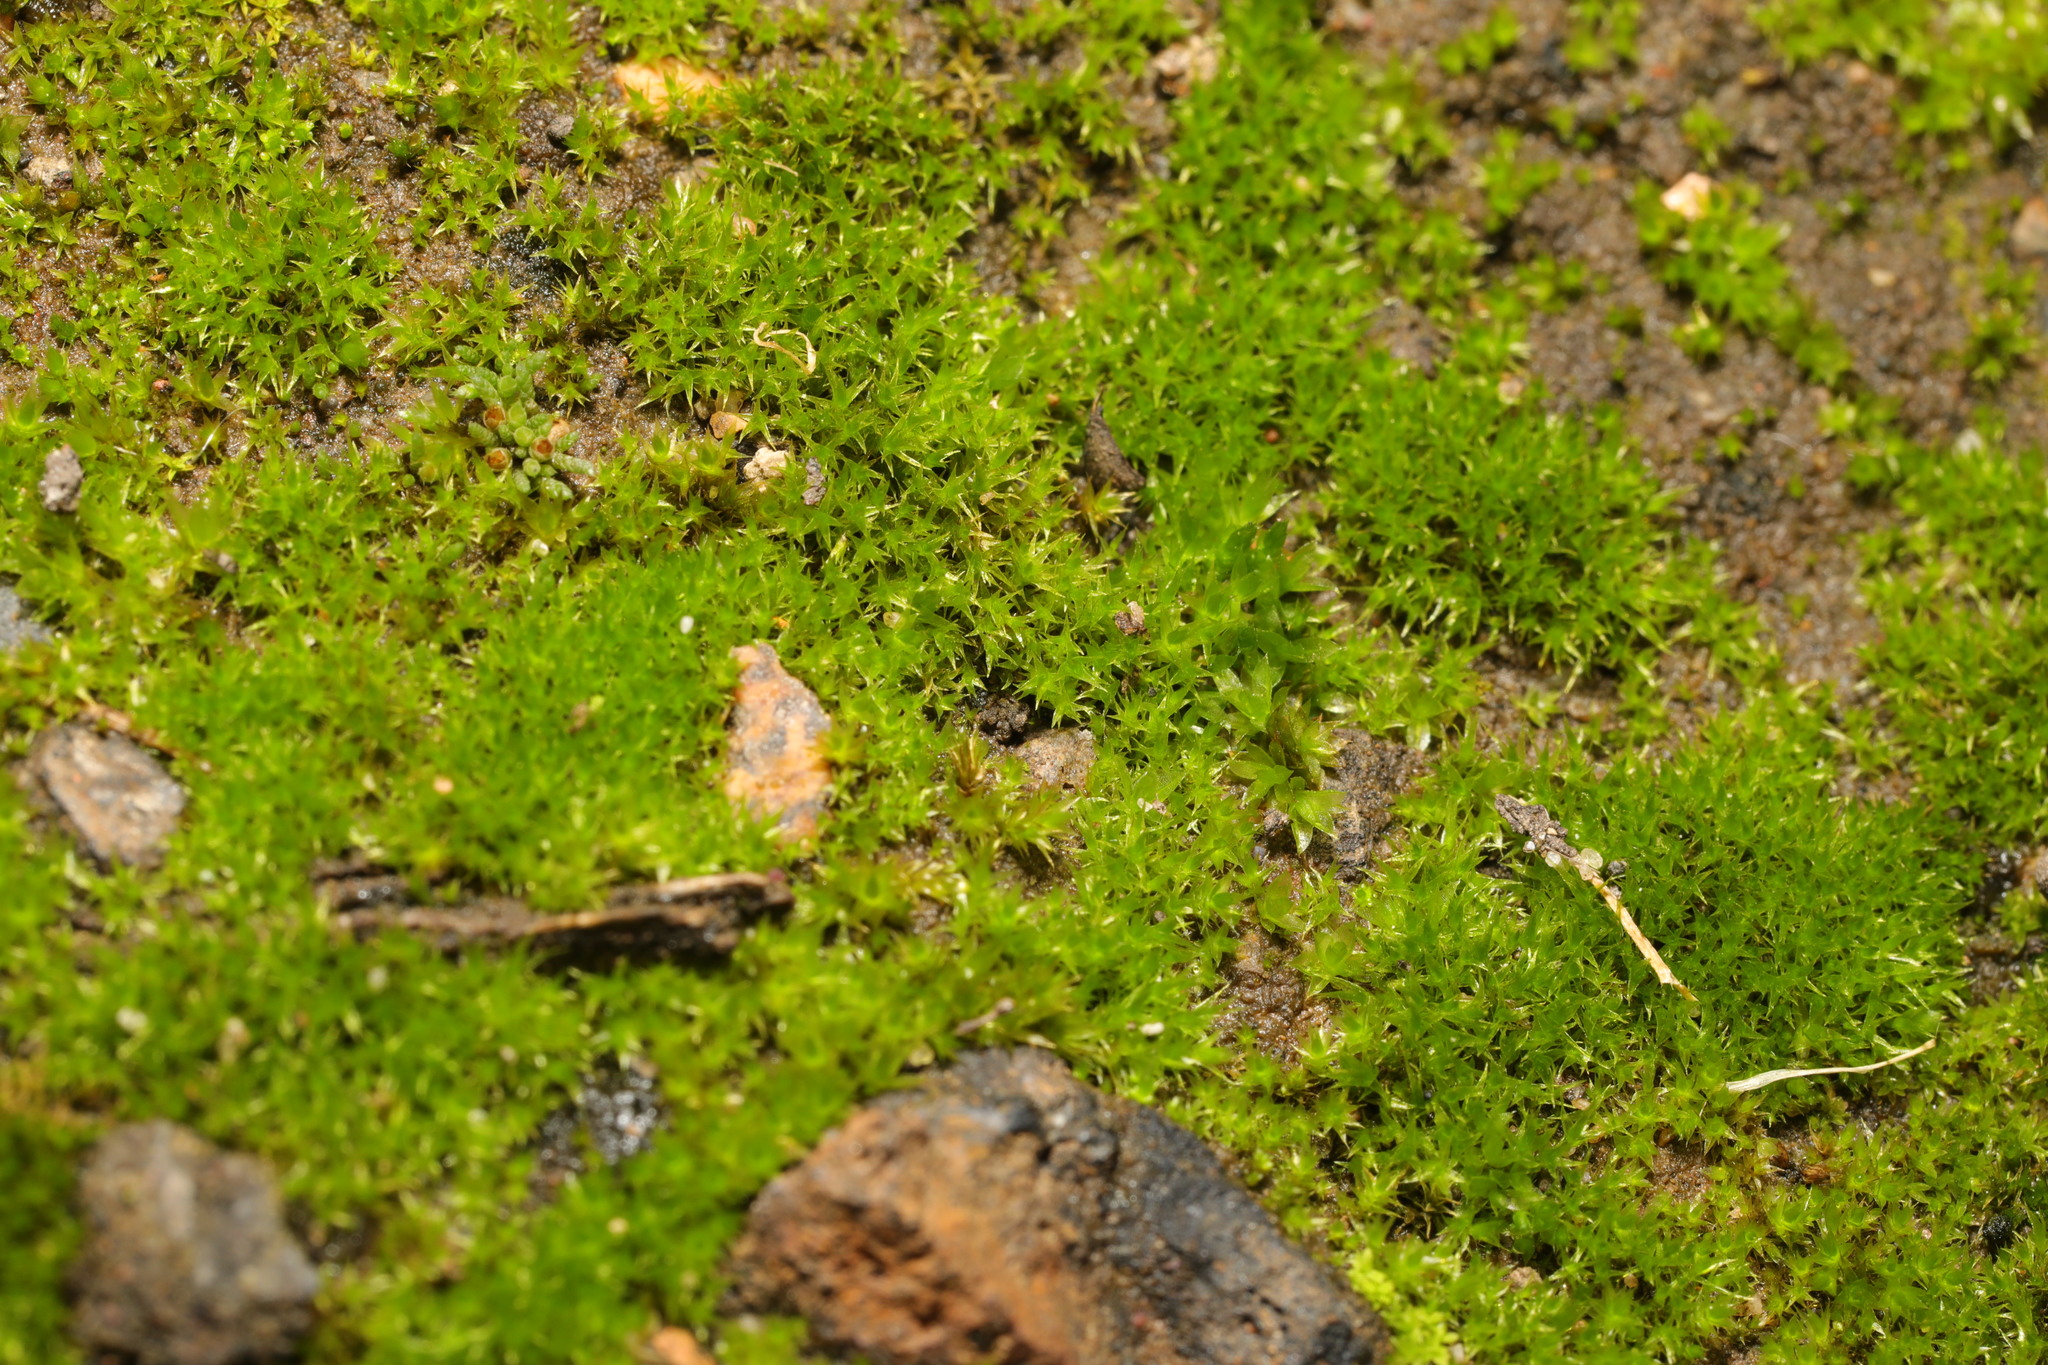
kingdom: Plantae
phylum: Bryophyta
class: Bryopsida
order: Dicranales
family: Ditrichaceae
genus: Ceratodon
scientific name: Ceratodon purpureus
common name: Redshank
